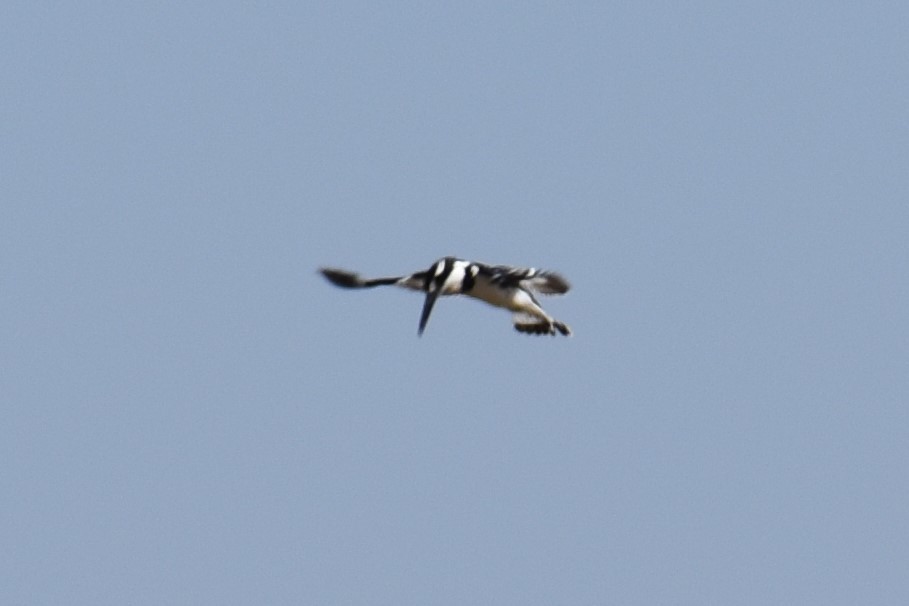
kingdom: Animalia
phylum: Chordata
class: Aves
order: Coraciiformes
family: Alcedinidae
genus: Ceryle
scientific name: Ceryle rudis
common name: Pied kingfisher
